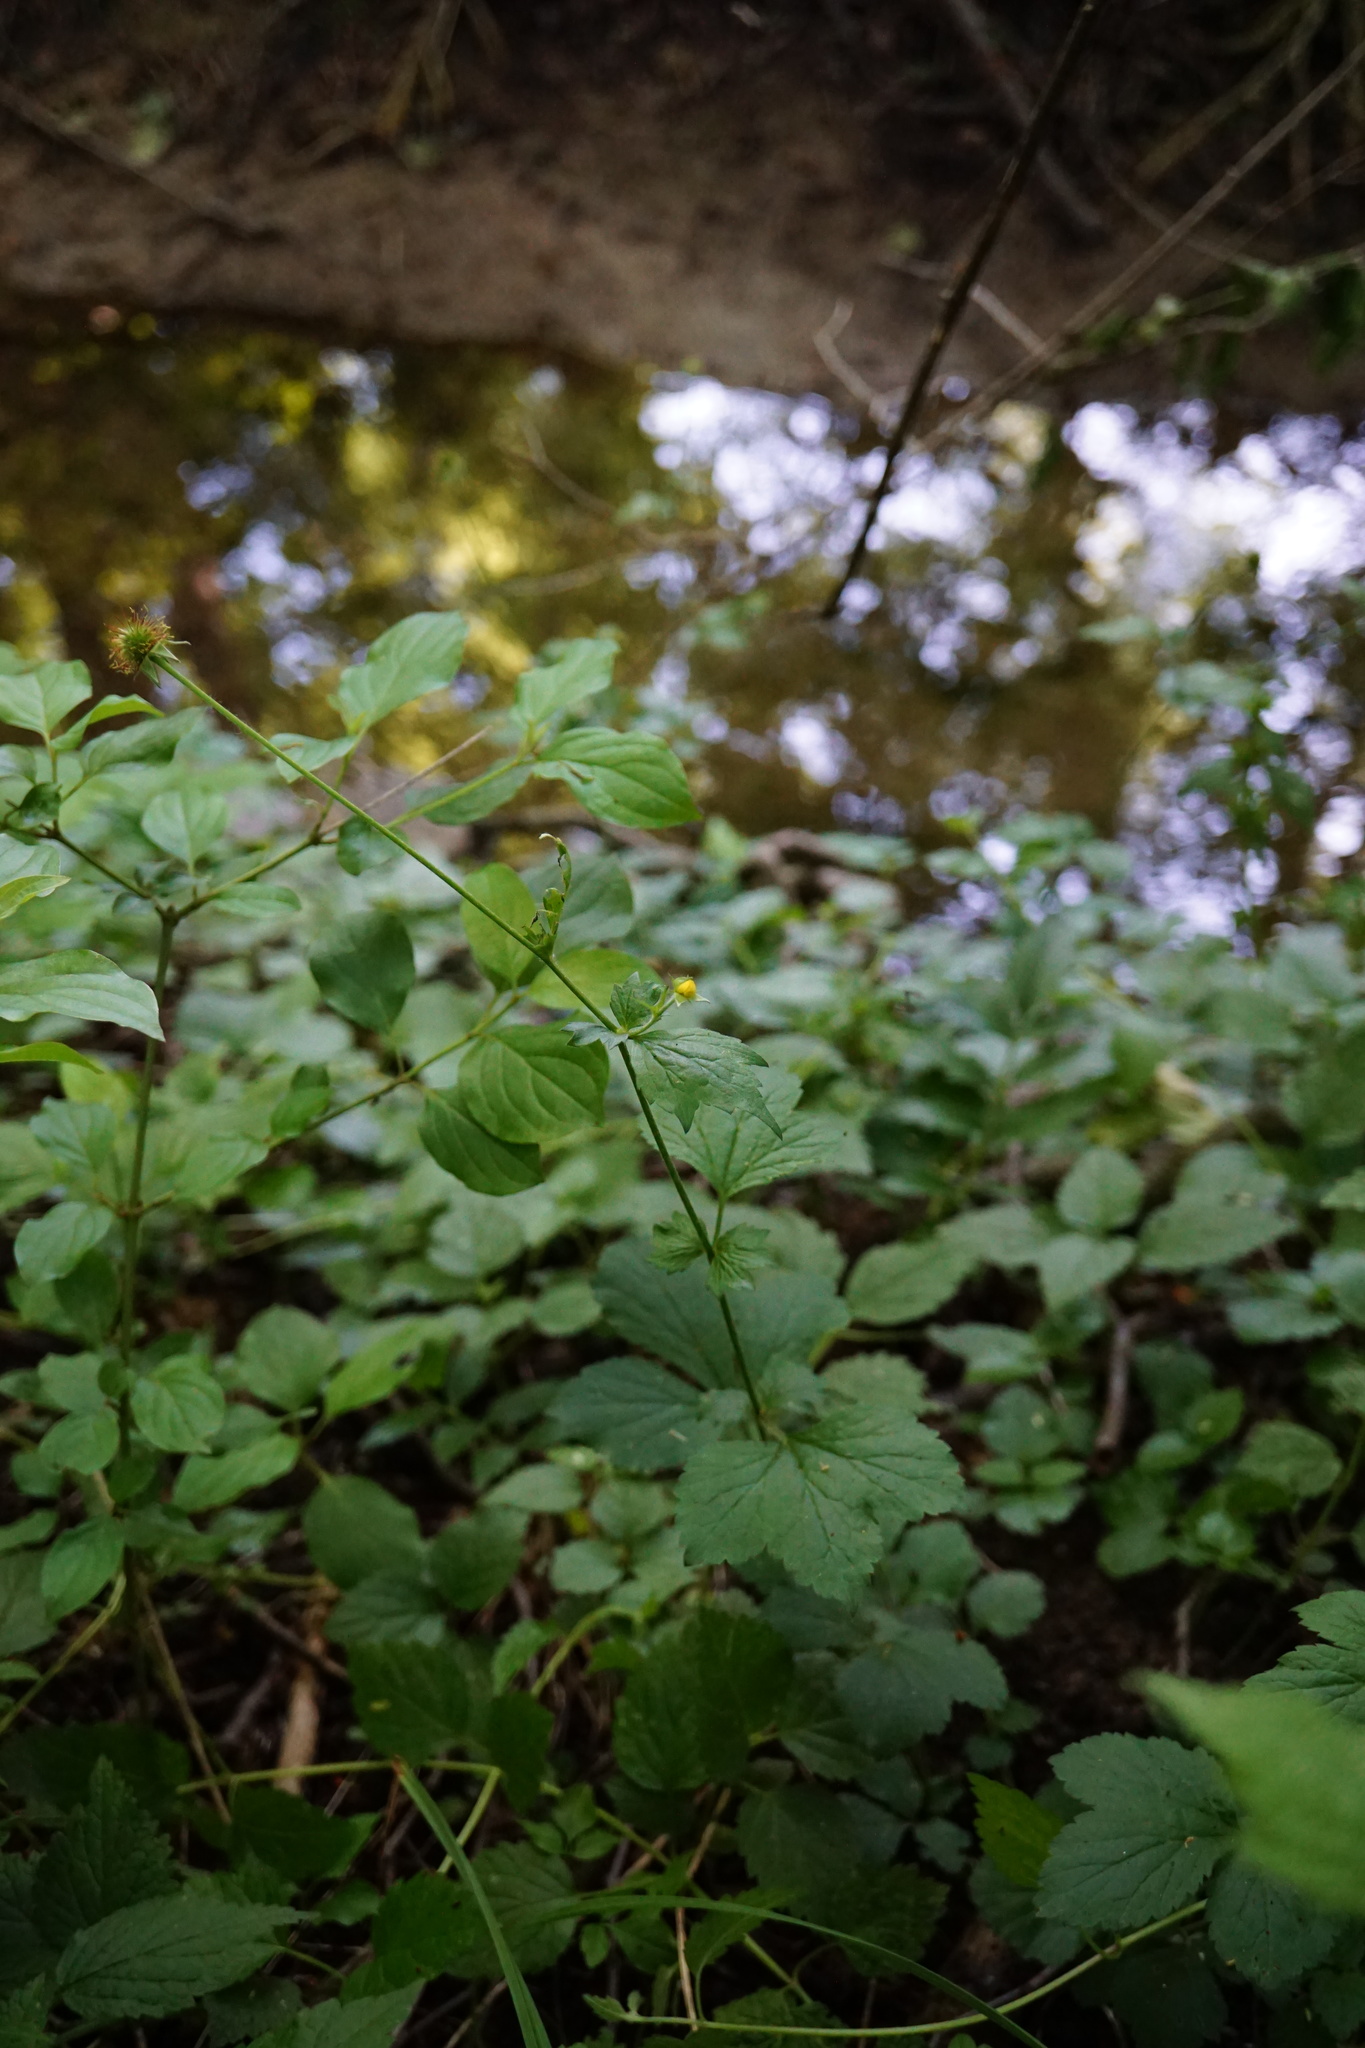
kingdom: Plantae
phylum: Tracheophyta
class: Magnoliopsida
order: Rosales
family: Rosaceae
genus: Geum
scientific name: Geum urbanum
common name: Wood avens
